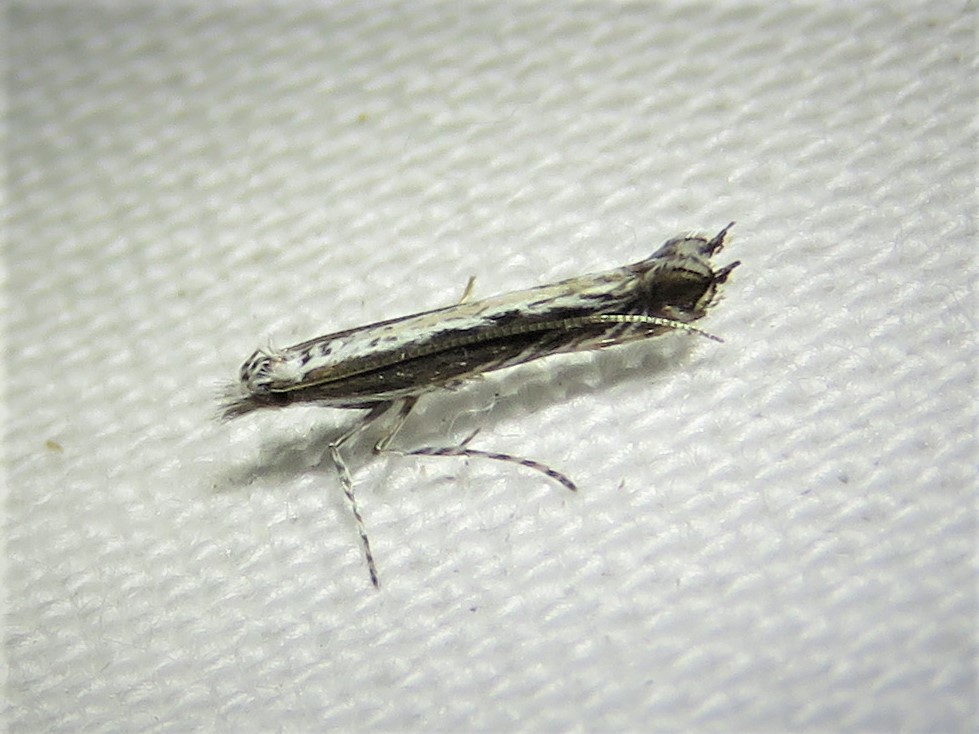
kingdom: Plantae
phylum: Rhodophyta
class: Florideophyceae
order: Gracilariales
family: Gracilariaceae
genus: Gracilaria
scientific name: Gracilaria
